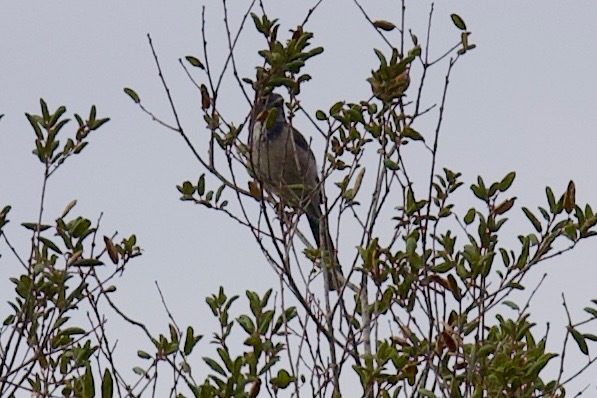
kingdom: Animalia
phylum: Chordata
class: Aves
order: Passeriformes
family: Corvidae
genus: Aphelocoma
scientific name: Aphelocoma californica
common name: California scrub-jay
